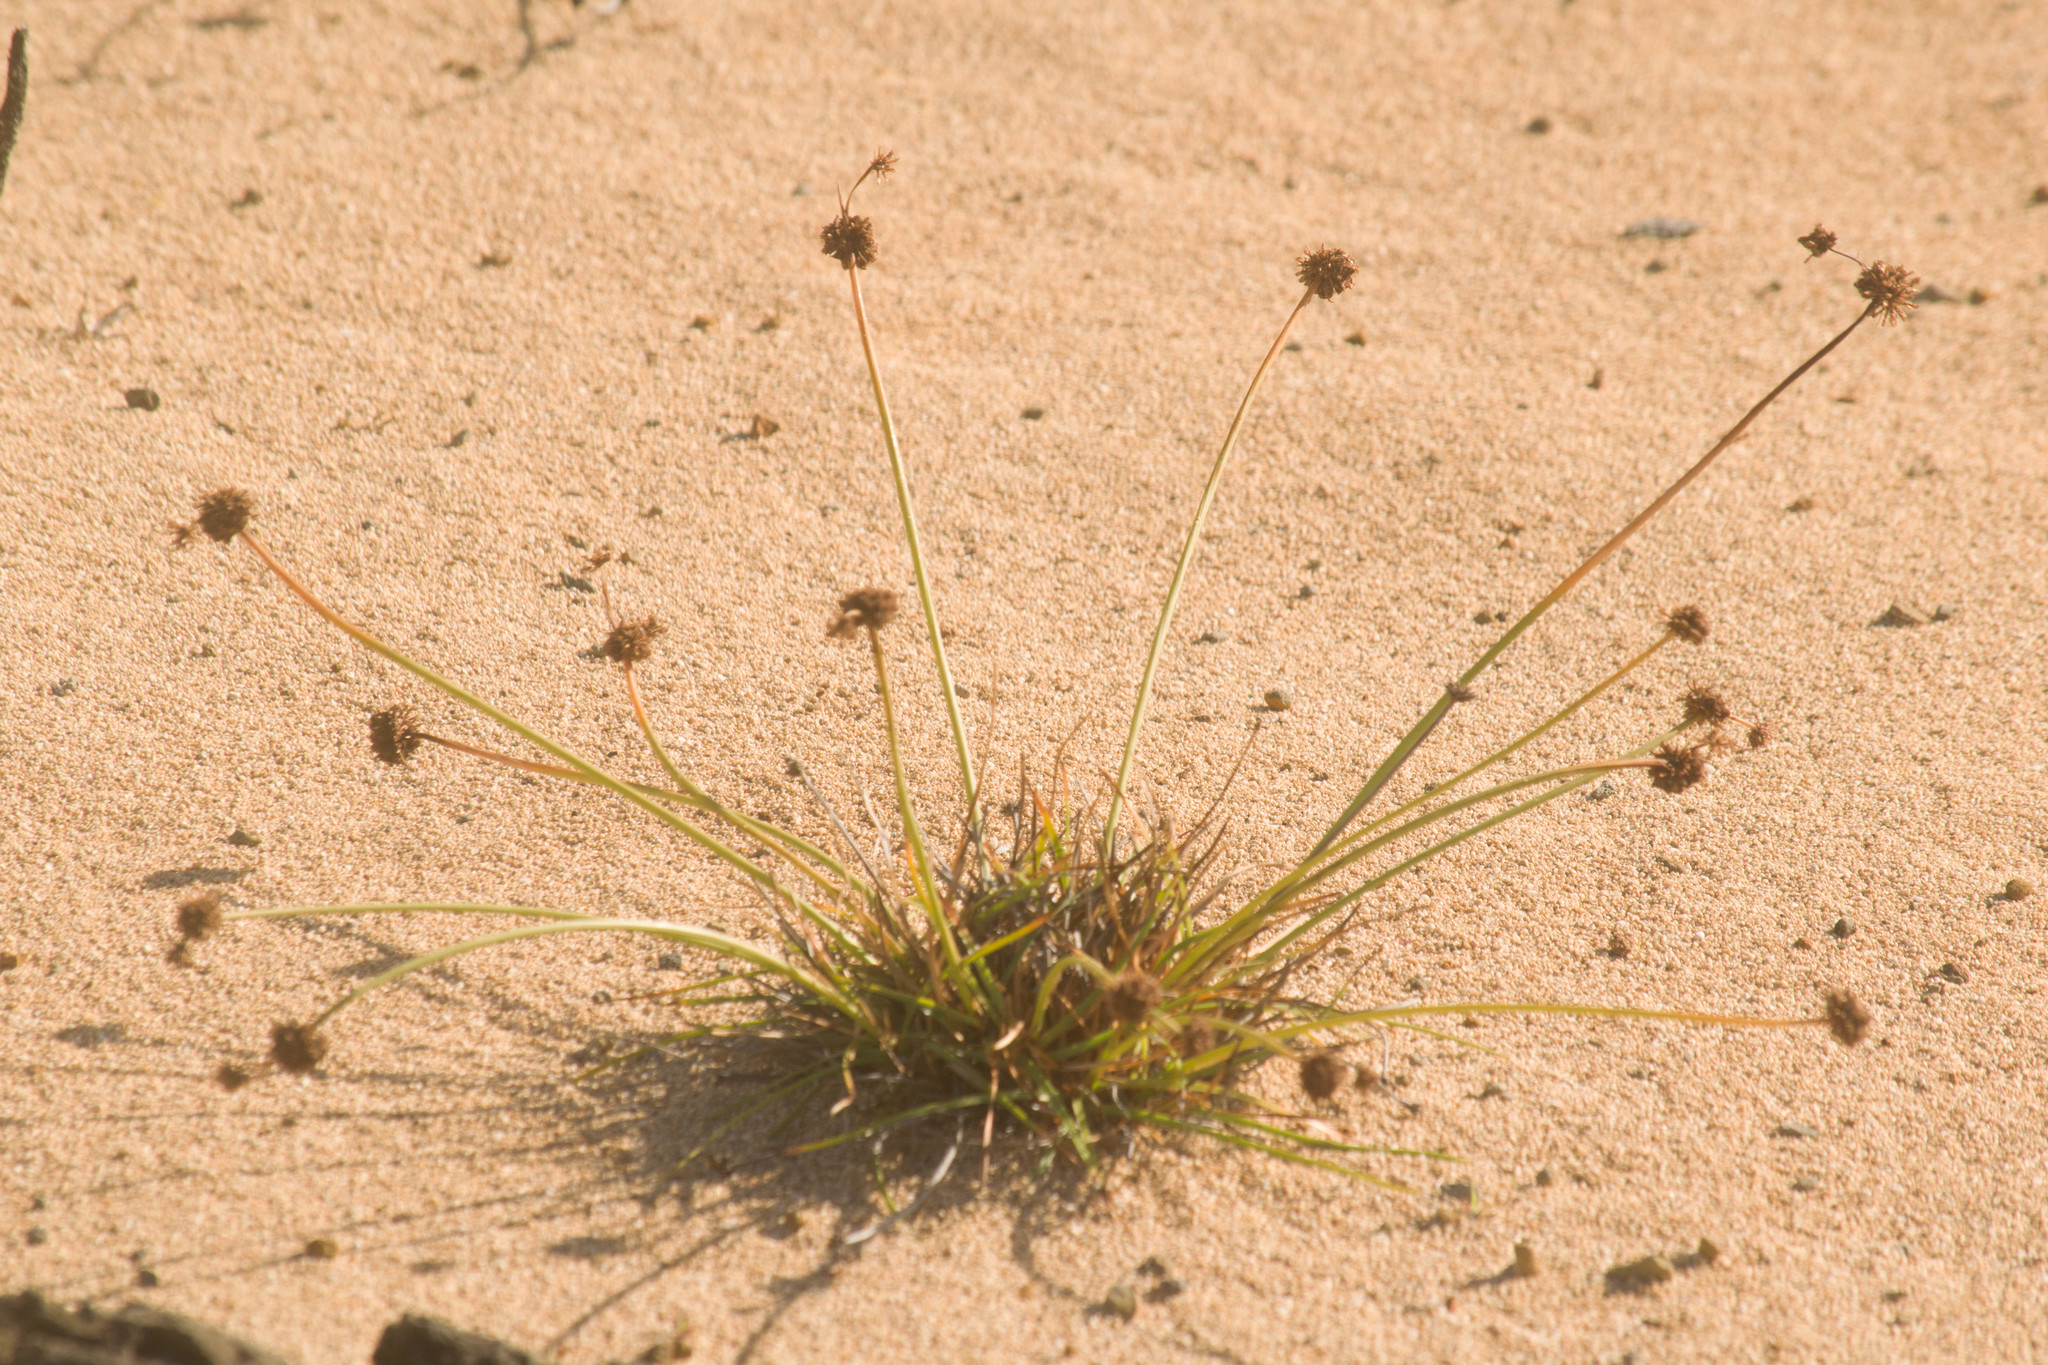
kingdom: Plantae
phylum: Tracheophyta
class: Liliopsida
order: Poales
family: Cyperaceae
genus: Fimbristylis
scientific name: Fimbristylis cymosa
